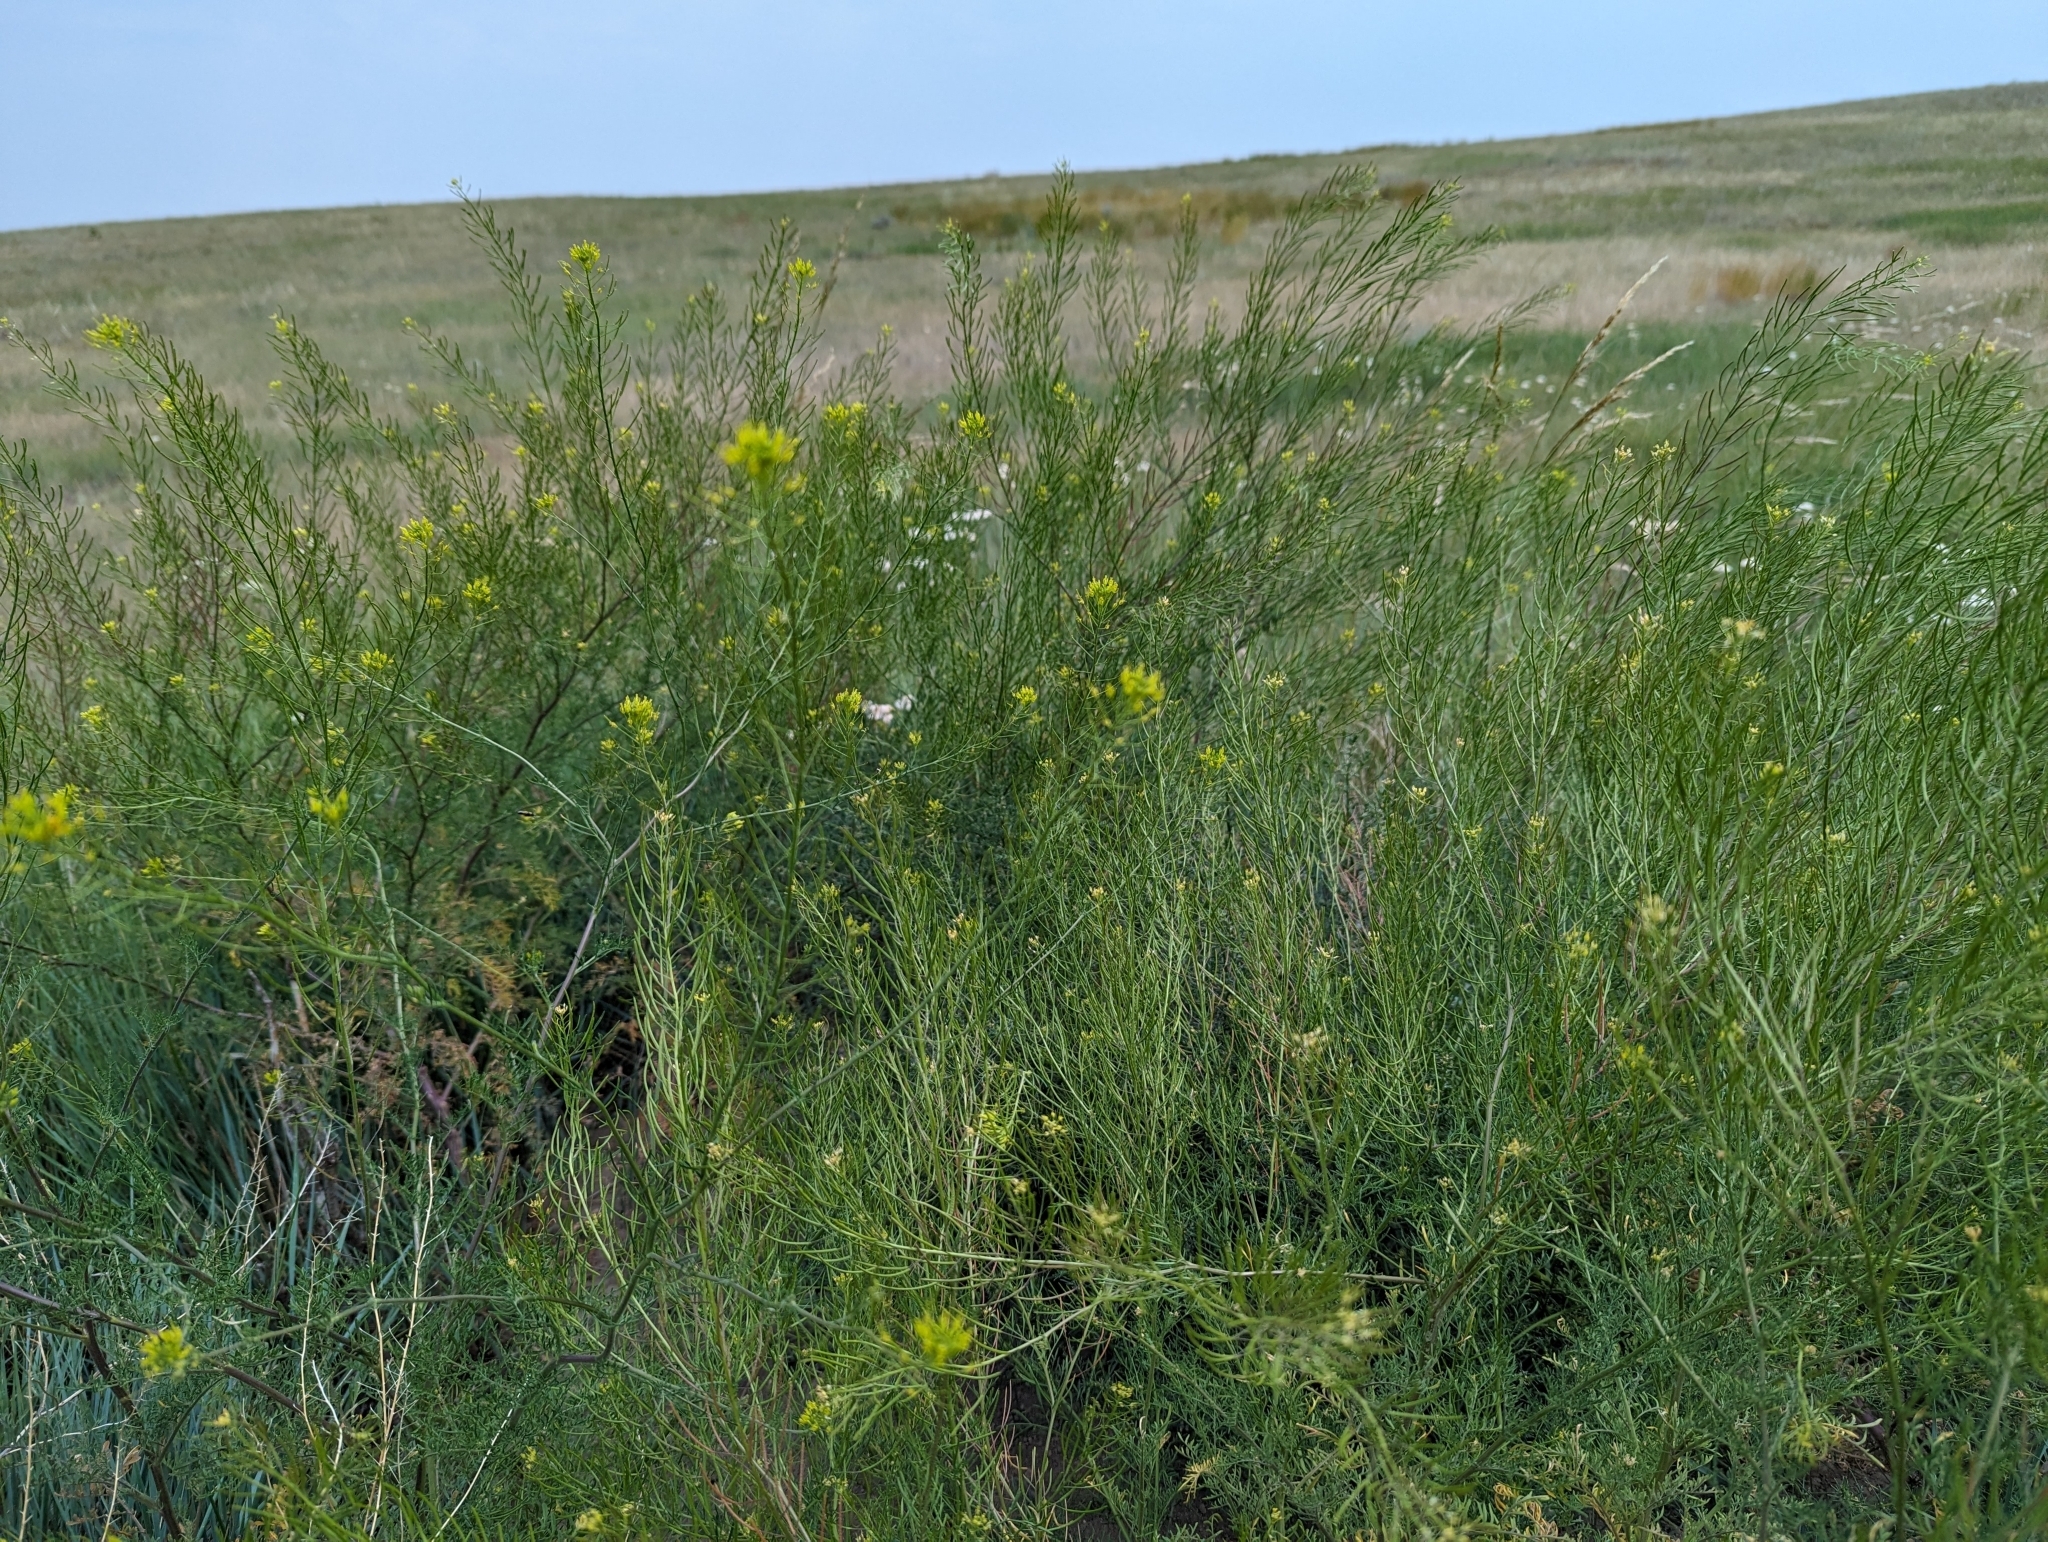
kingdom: Plantae
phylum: Tracheophyta
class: Magnoliopsida
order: Brassicales
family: Brassicaceae
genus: Descurainia
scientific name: Descurainia sophia
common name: Flixweed
